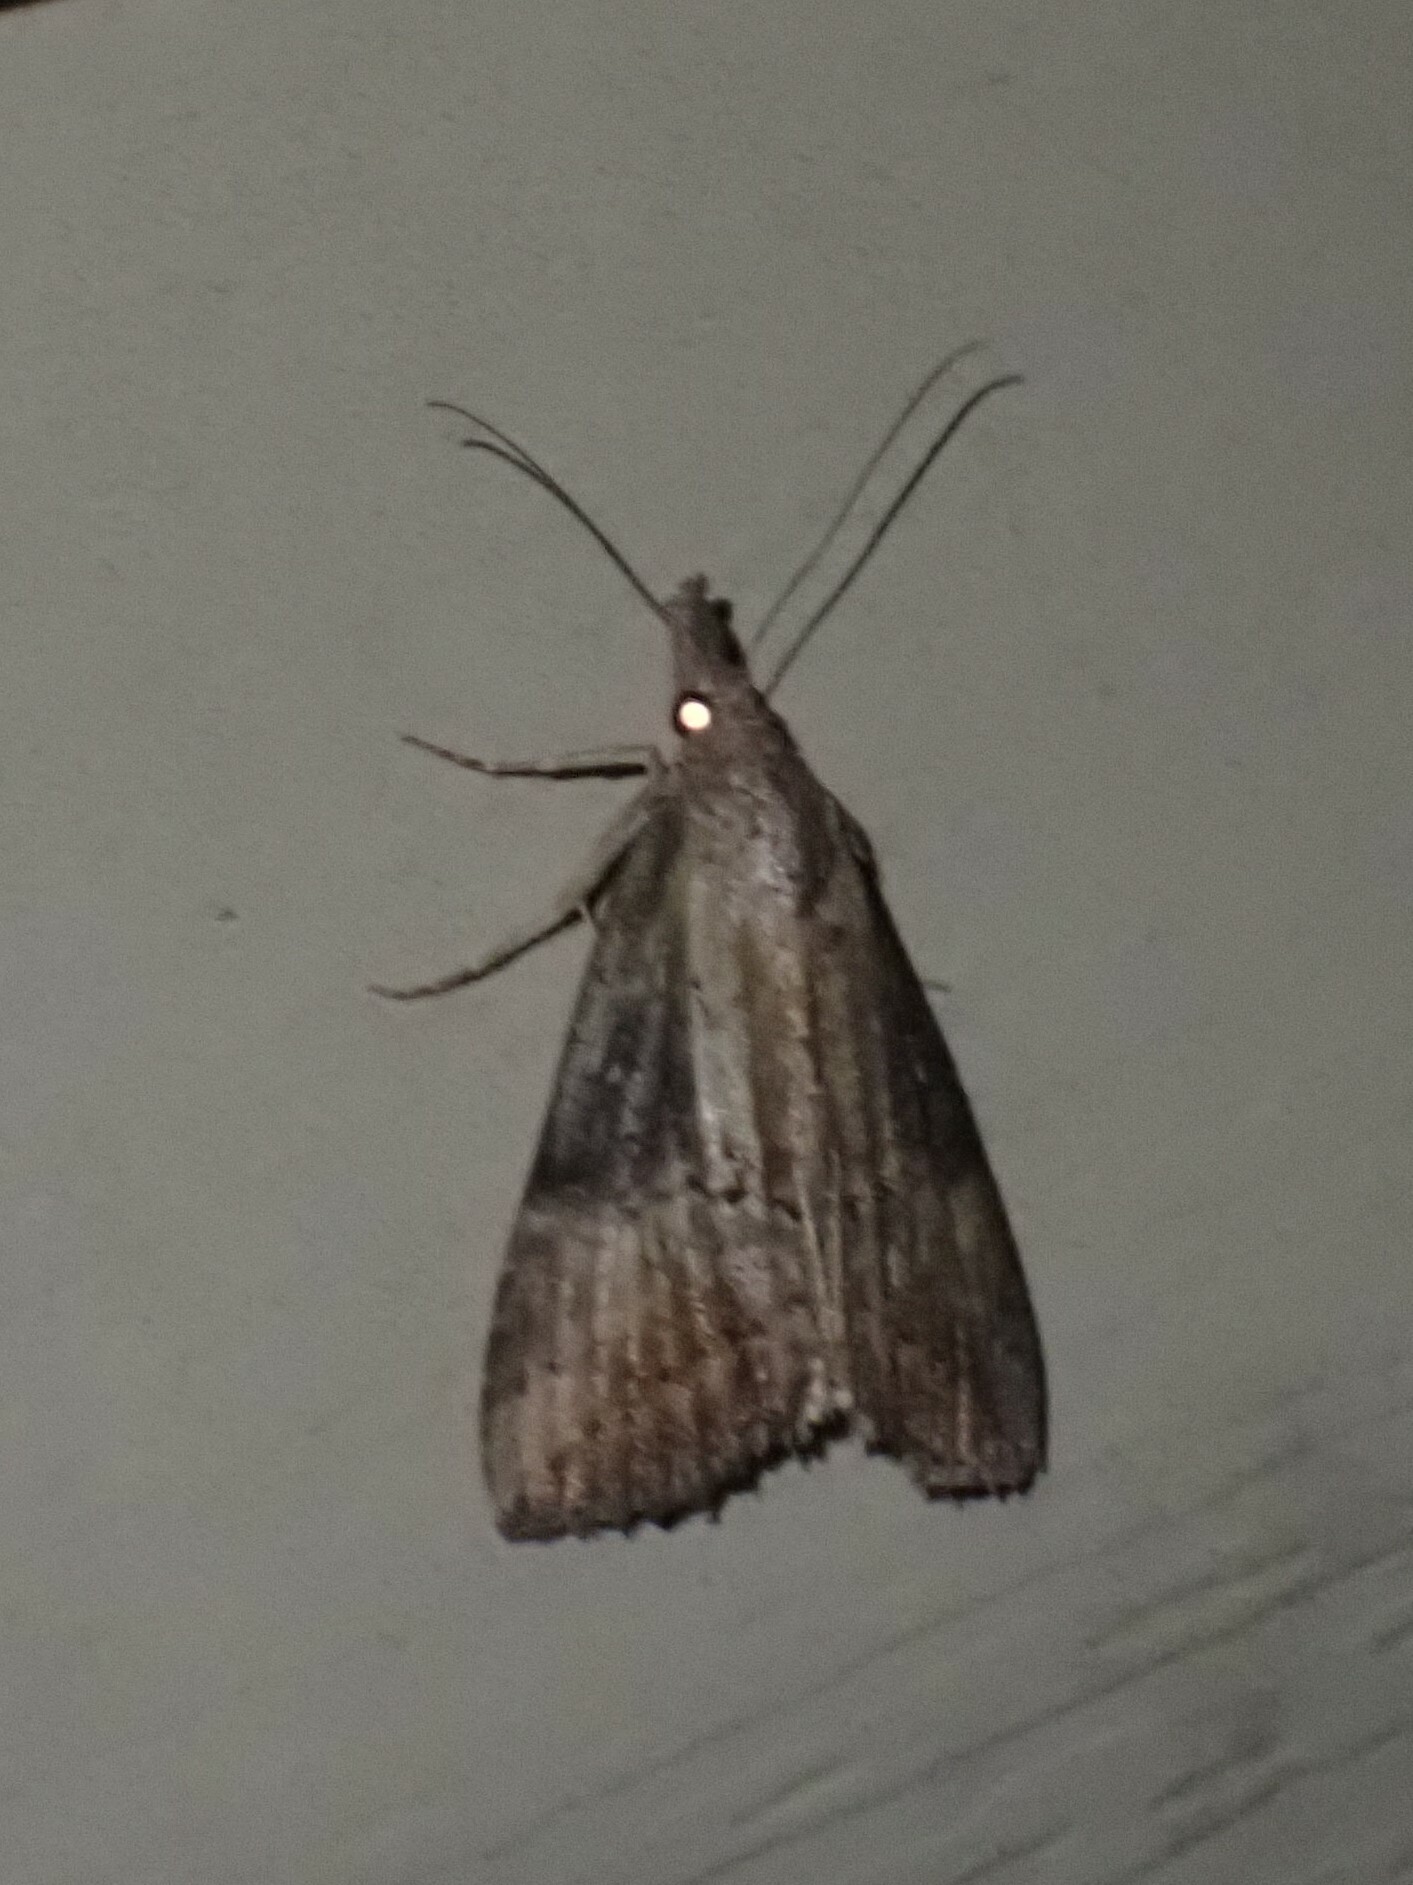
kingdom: Animalia
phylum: Arthropoda
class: Insecta
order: Lepidoptera
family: Erebidae
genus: Hypena
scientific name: Hypena scabra
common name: Green cloverworm
